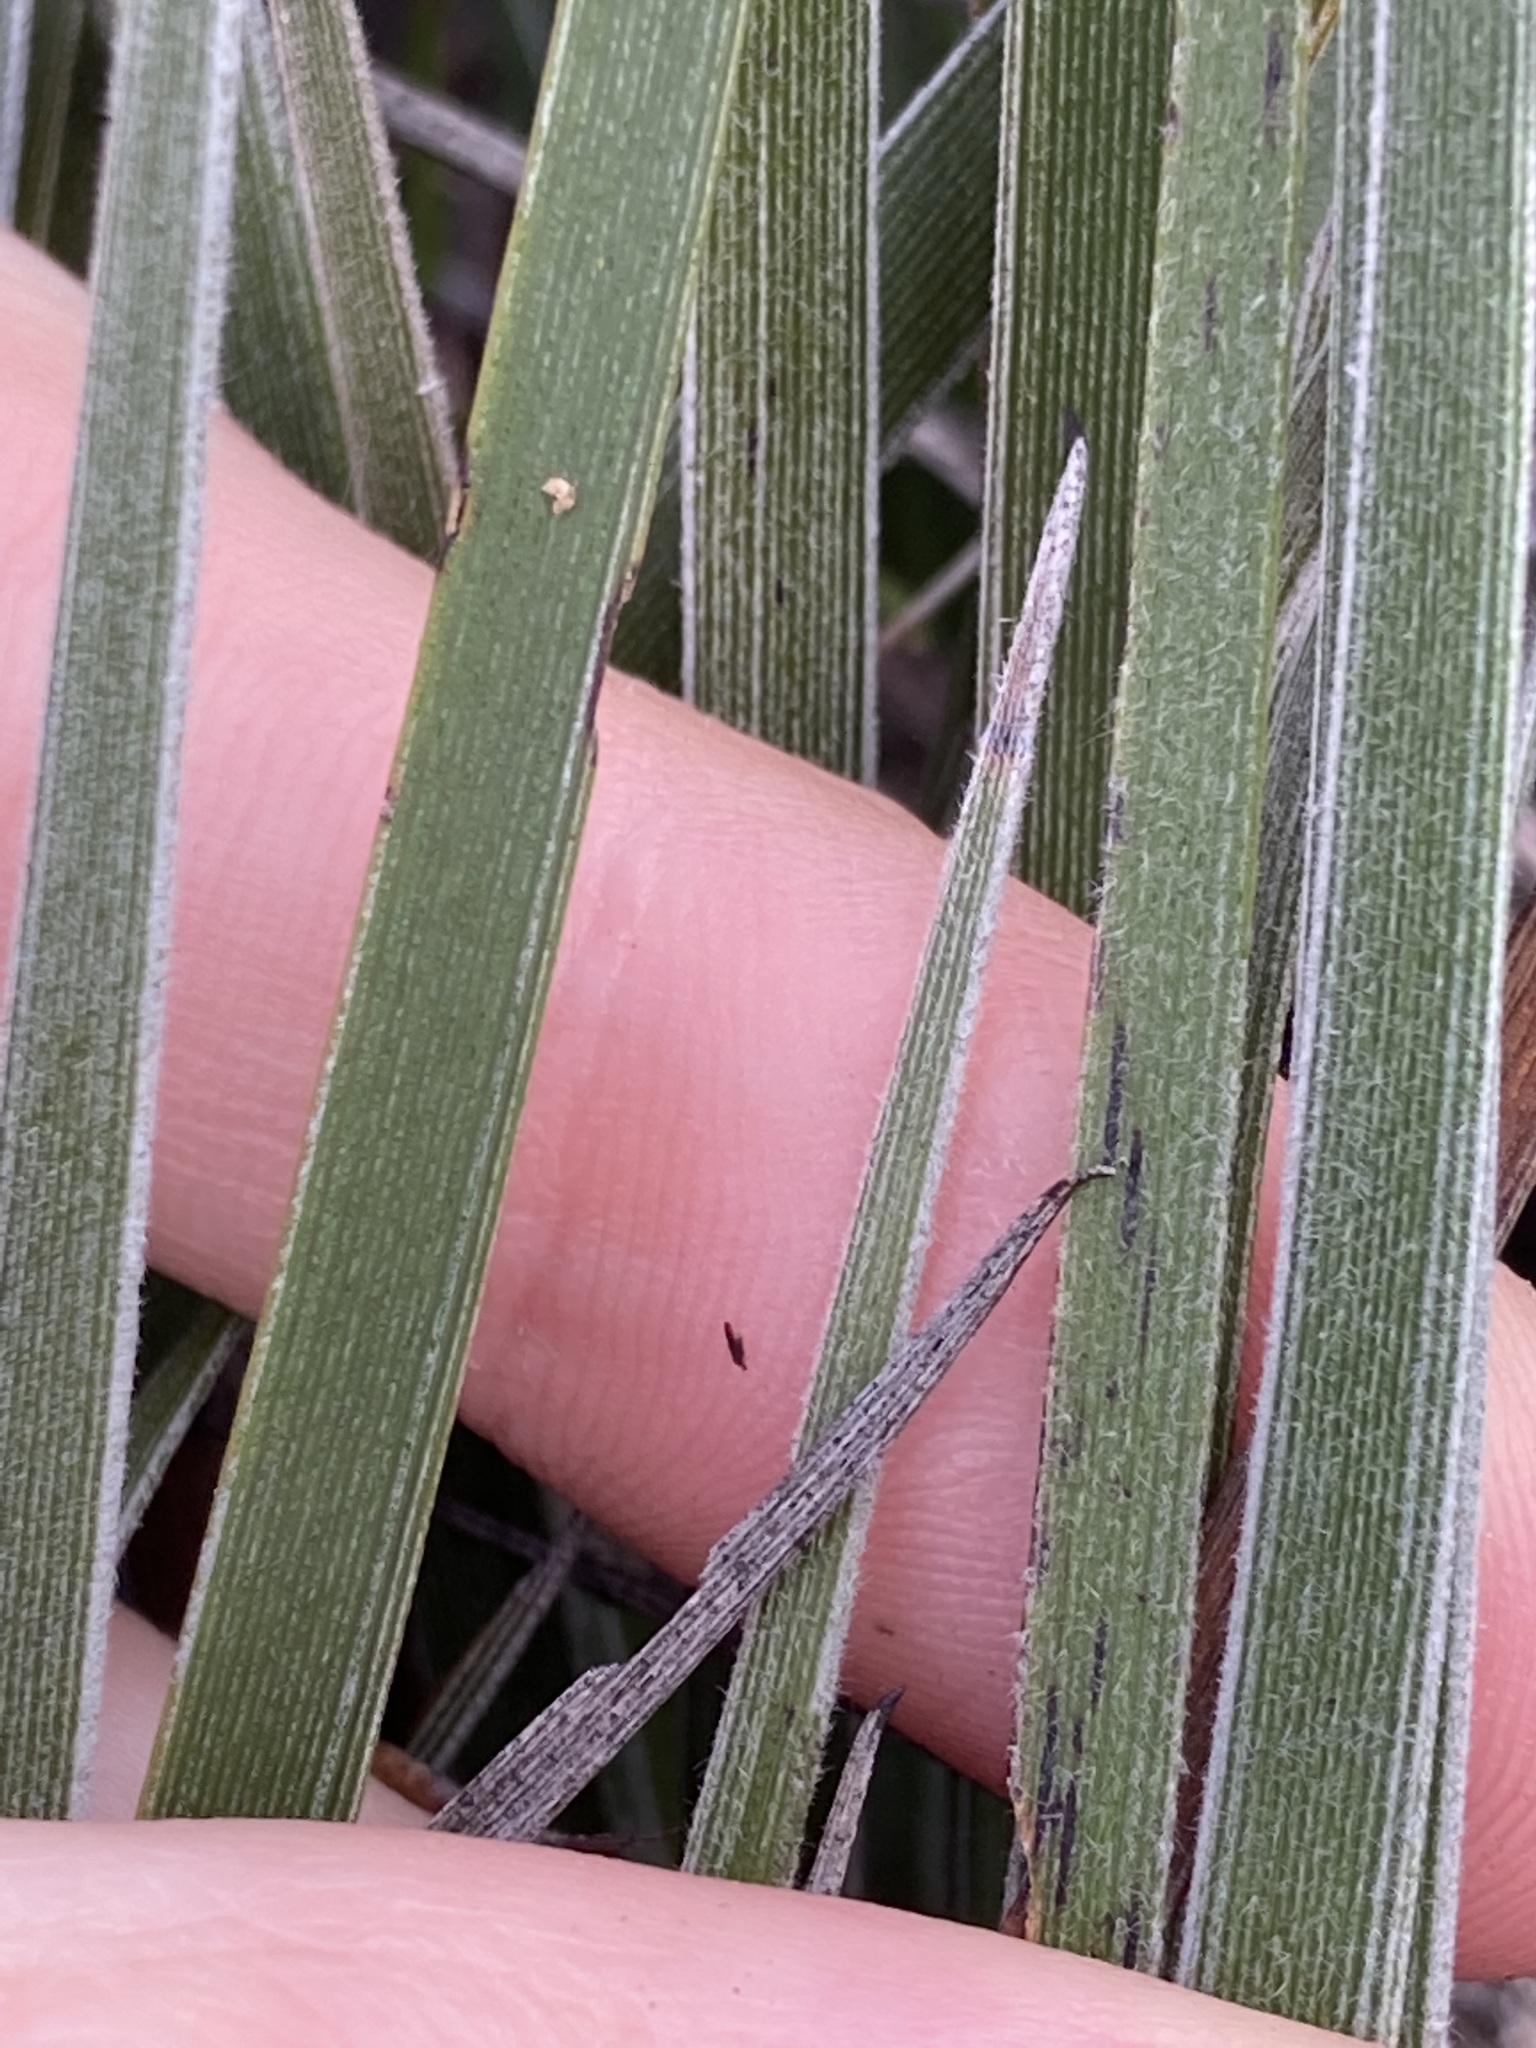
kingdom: Plantae
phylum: Tracheophyta
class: Liliopsida
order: Commelinales
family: Haemodoraceae
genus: Blancoa
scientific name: Blancoa canescens
